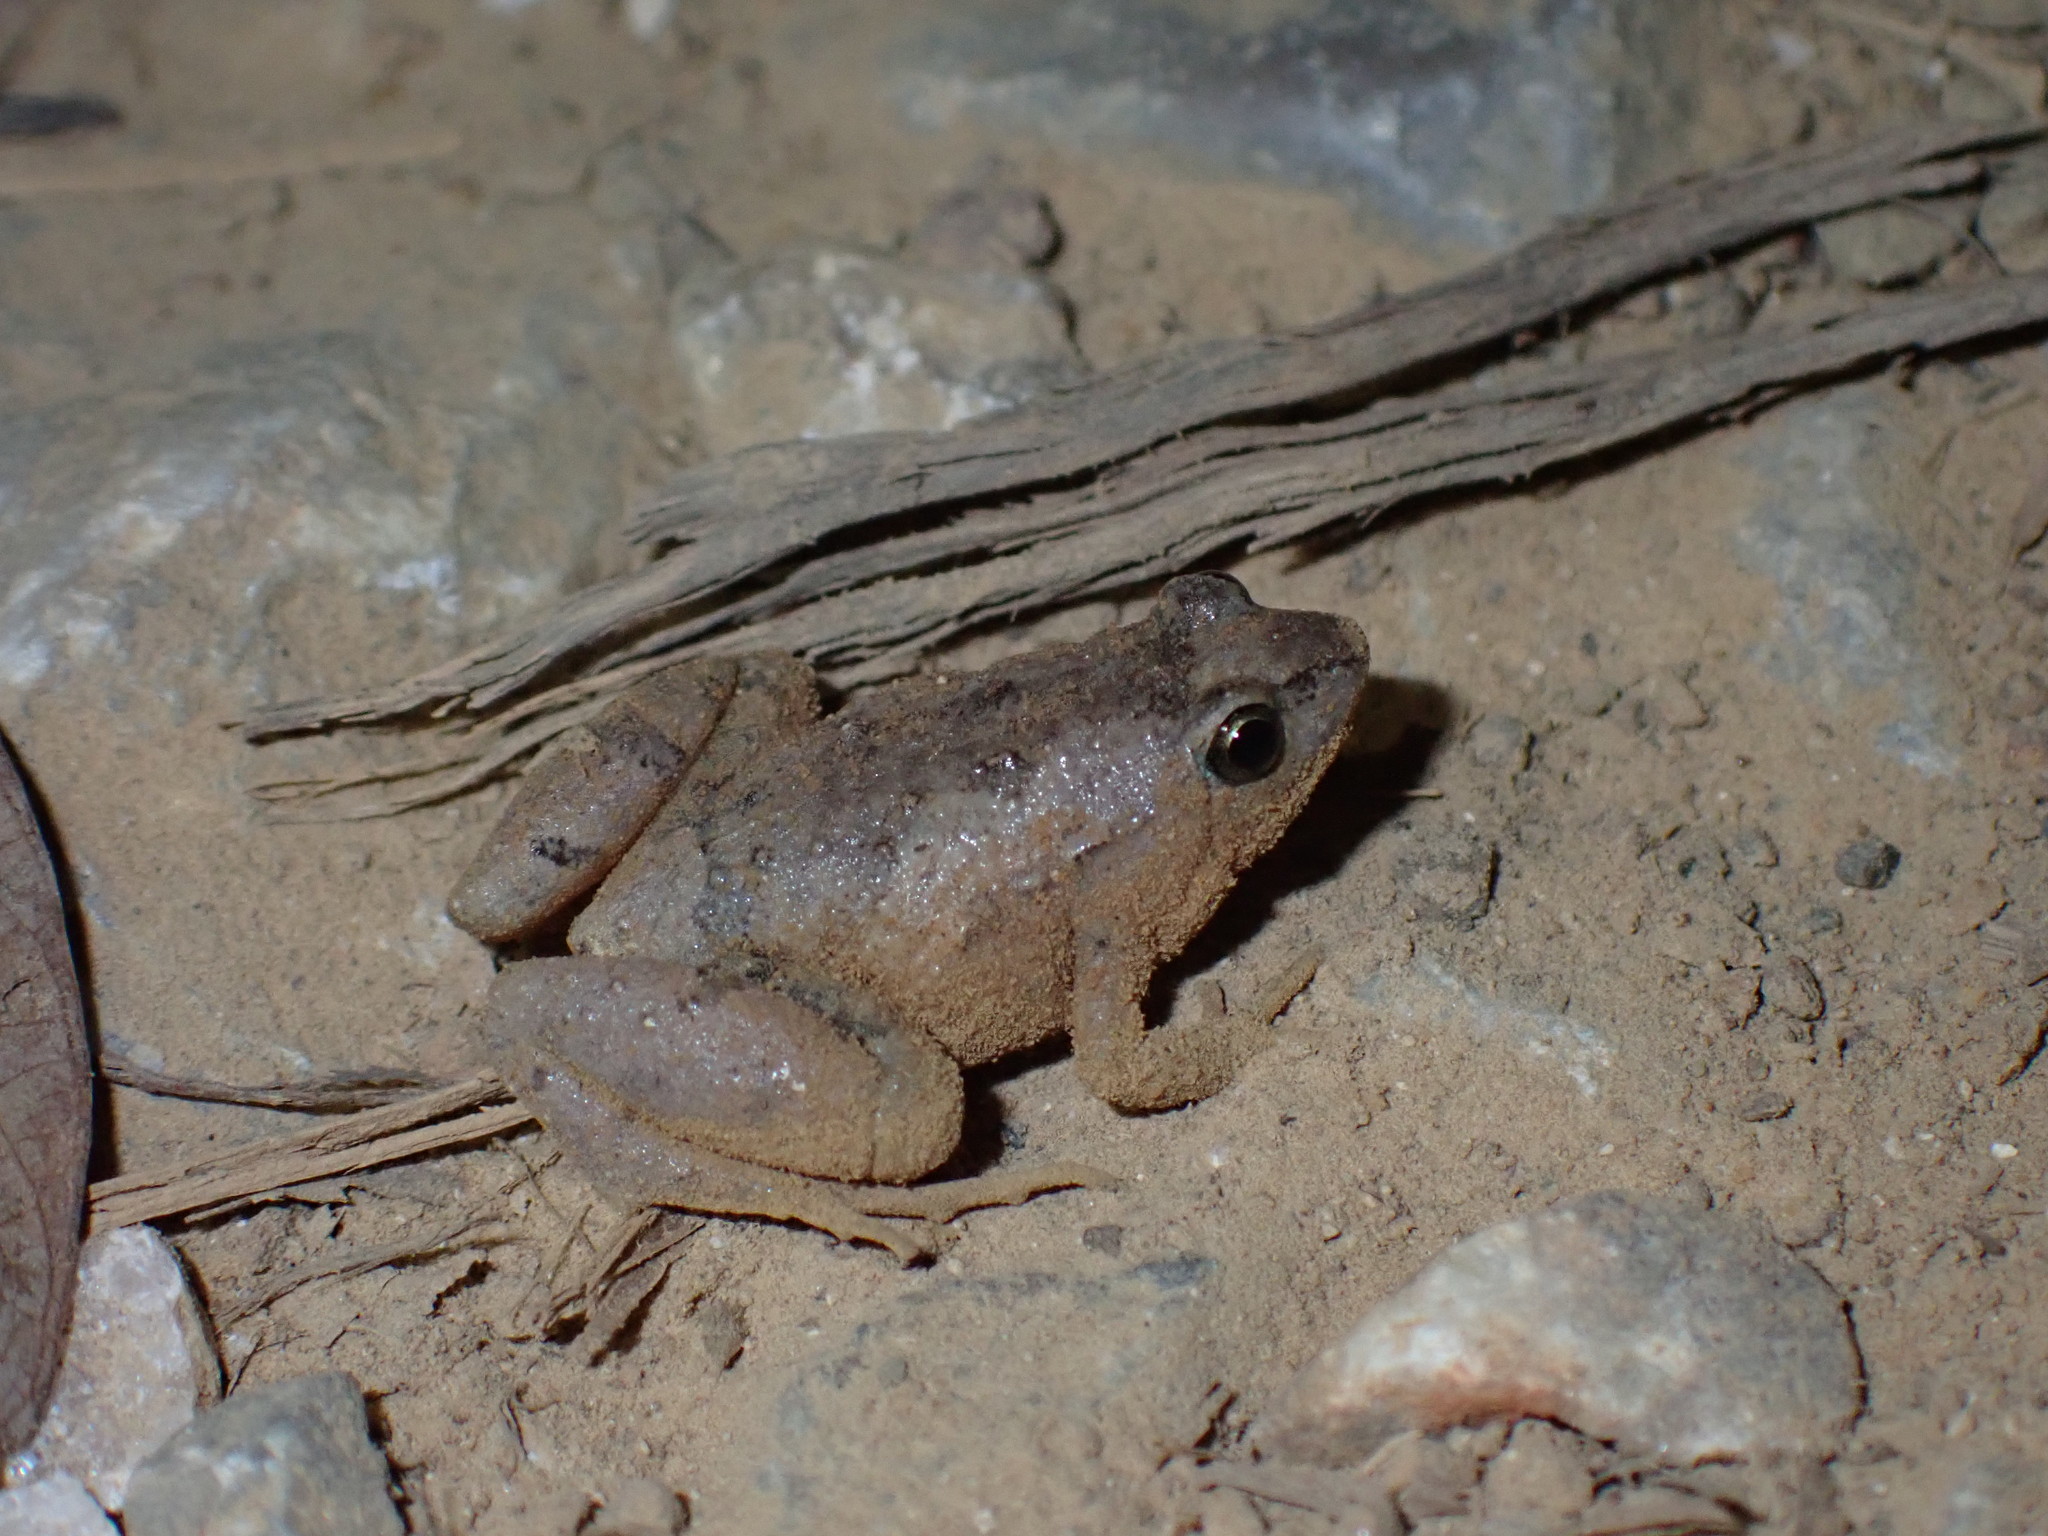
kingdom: Animalia
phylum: Chordata
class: Amphibia
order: Anura
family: Microhylidae
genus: Microhyla
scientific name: Microhyla mukhlesuri
